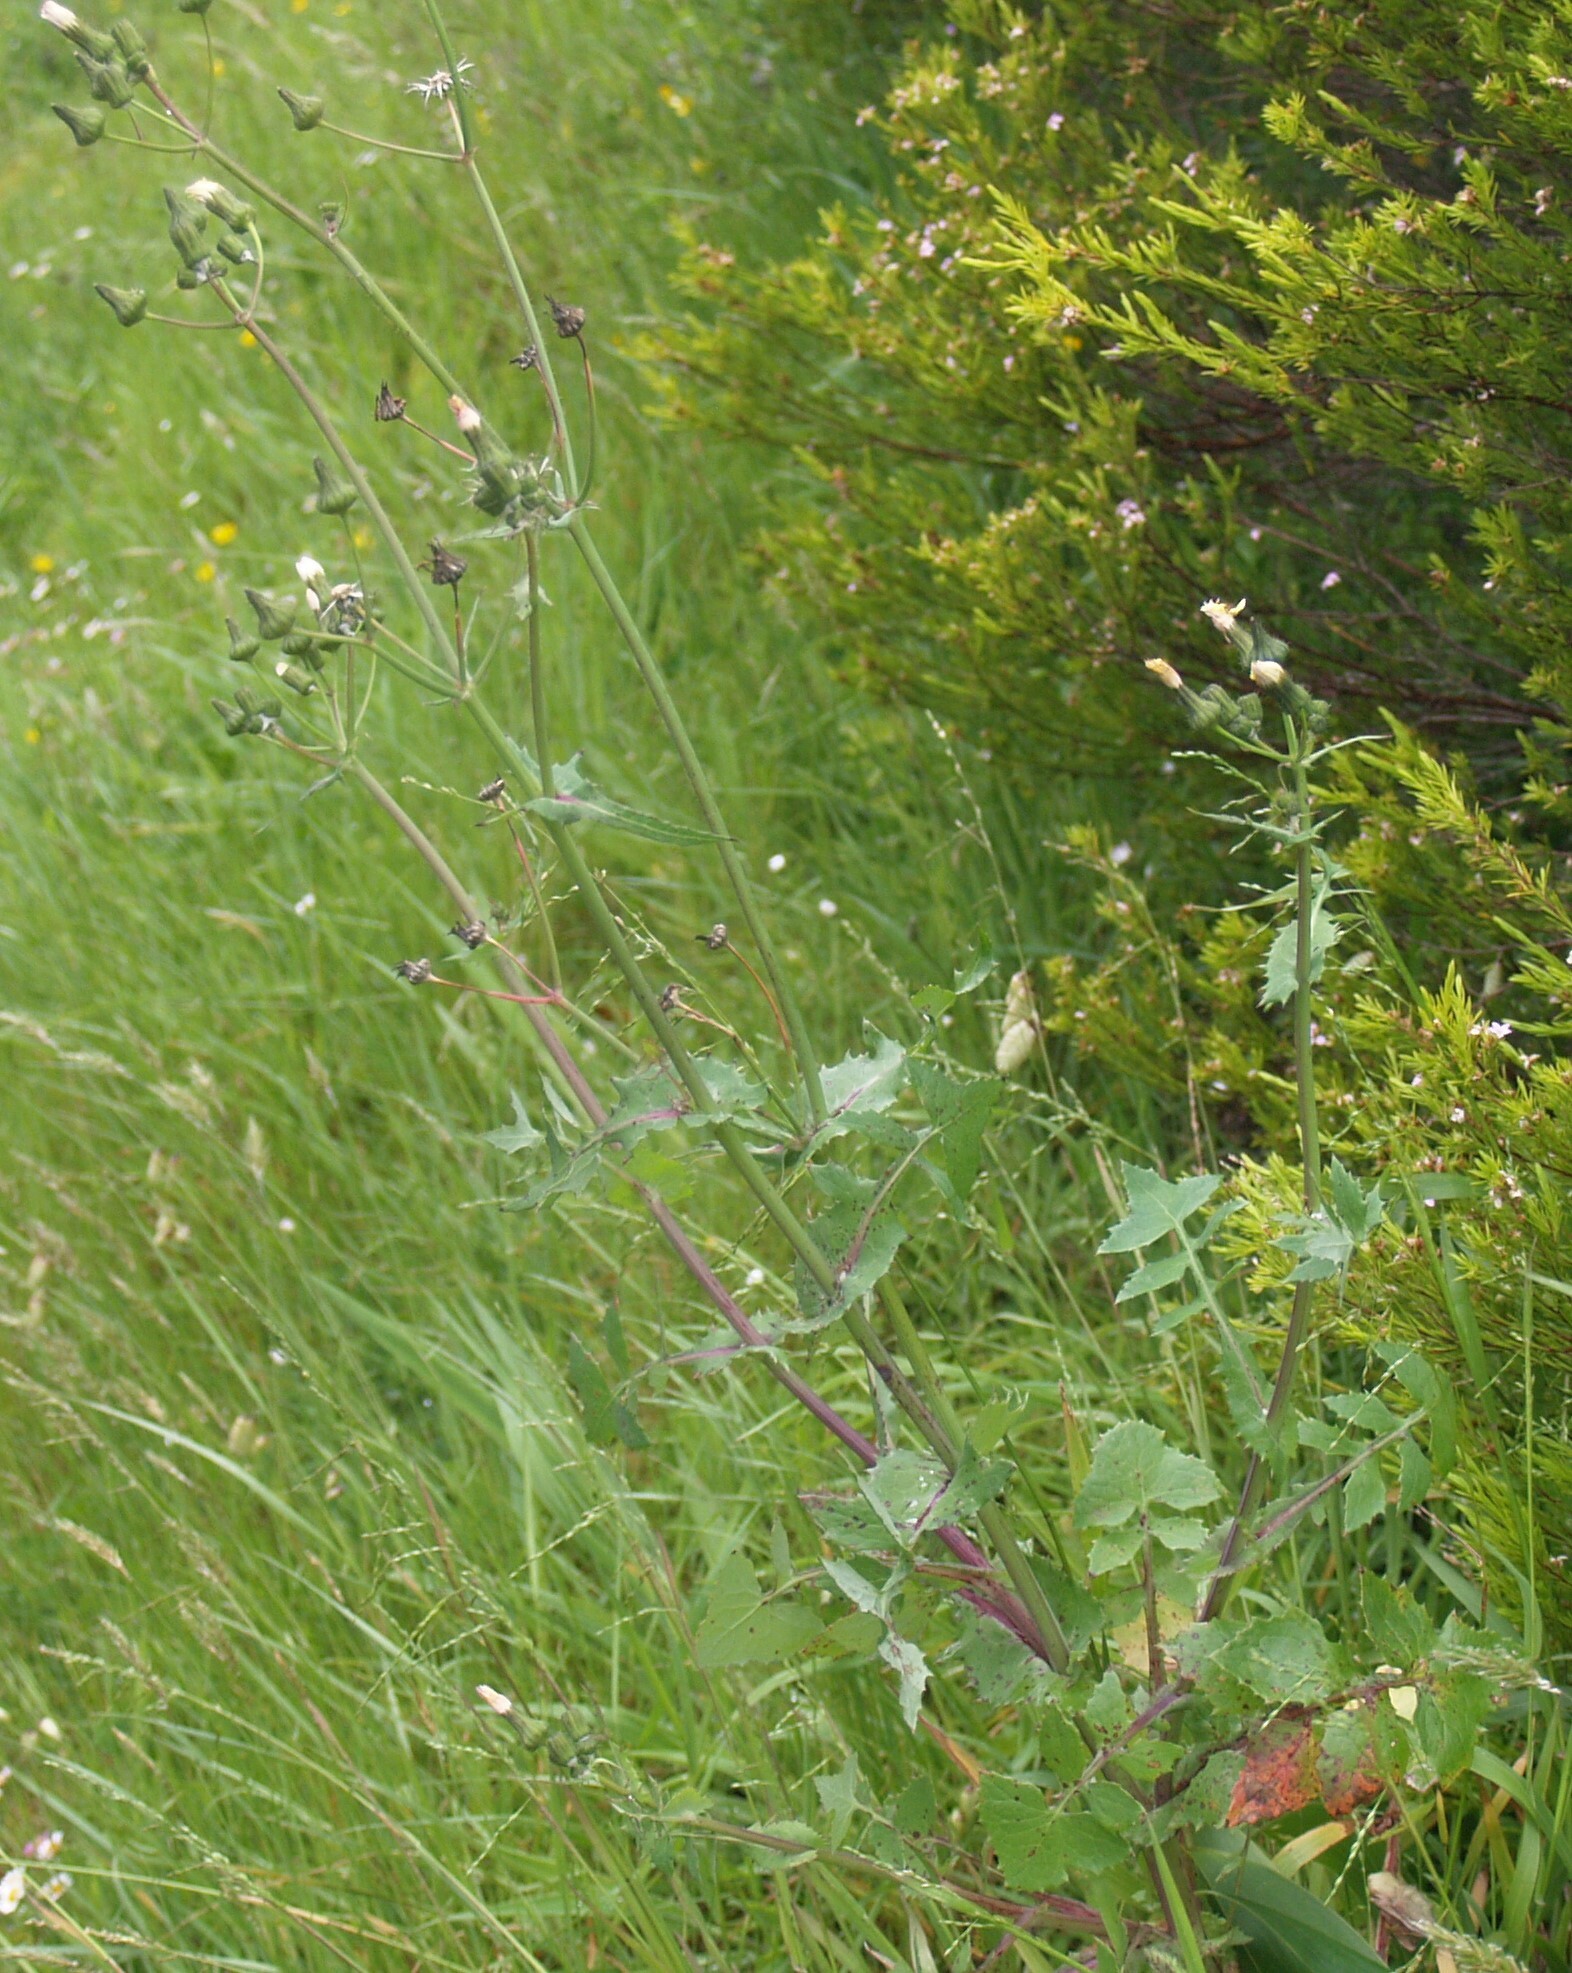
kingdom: Plantae
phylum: Tracheophyta
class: Magnoliopsida
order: Asterales
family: Asteraceae
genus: Sonchus
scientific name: Sonchus oleraceus
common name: Common sowthistle
